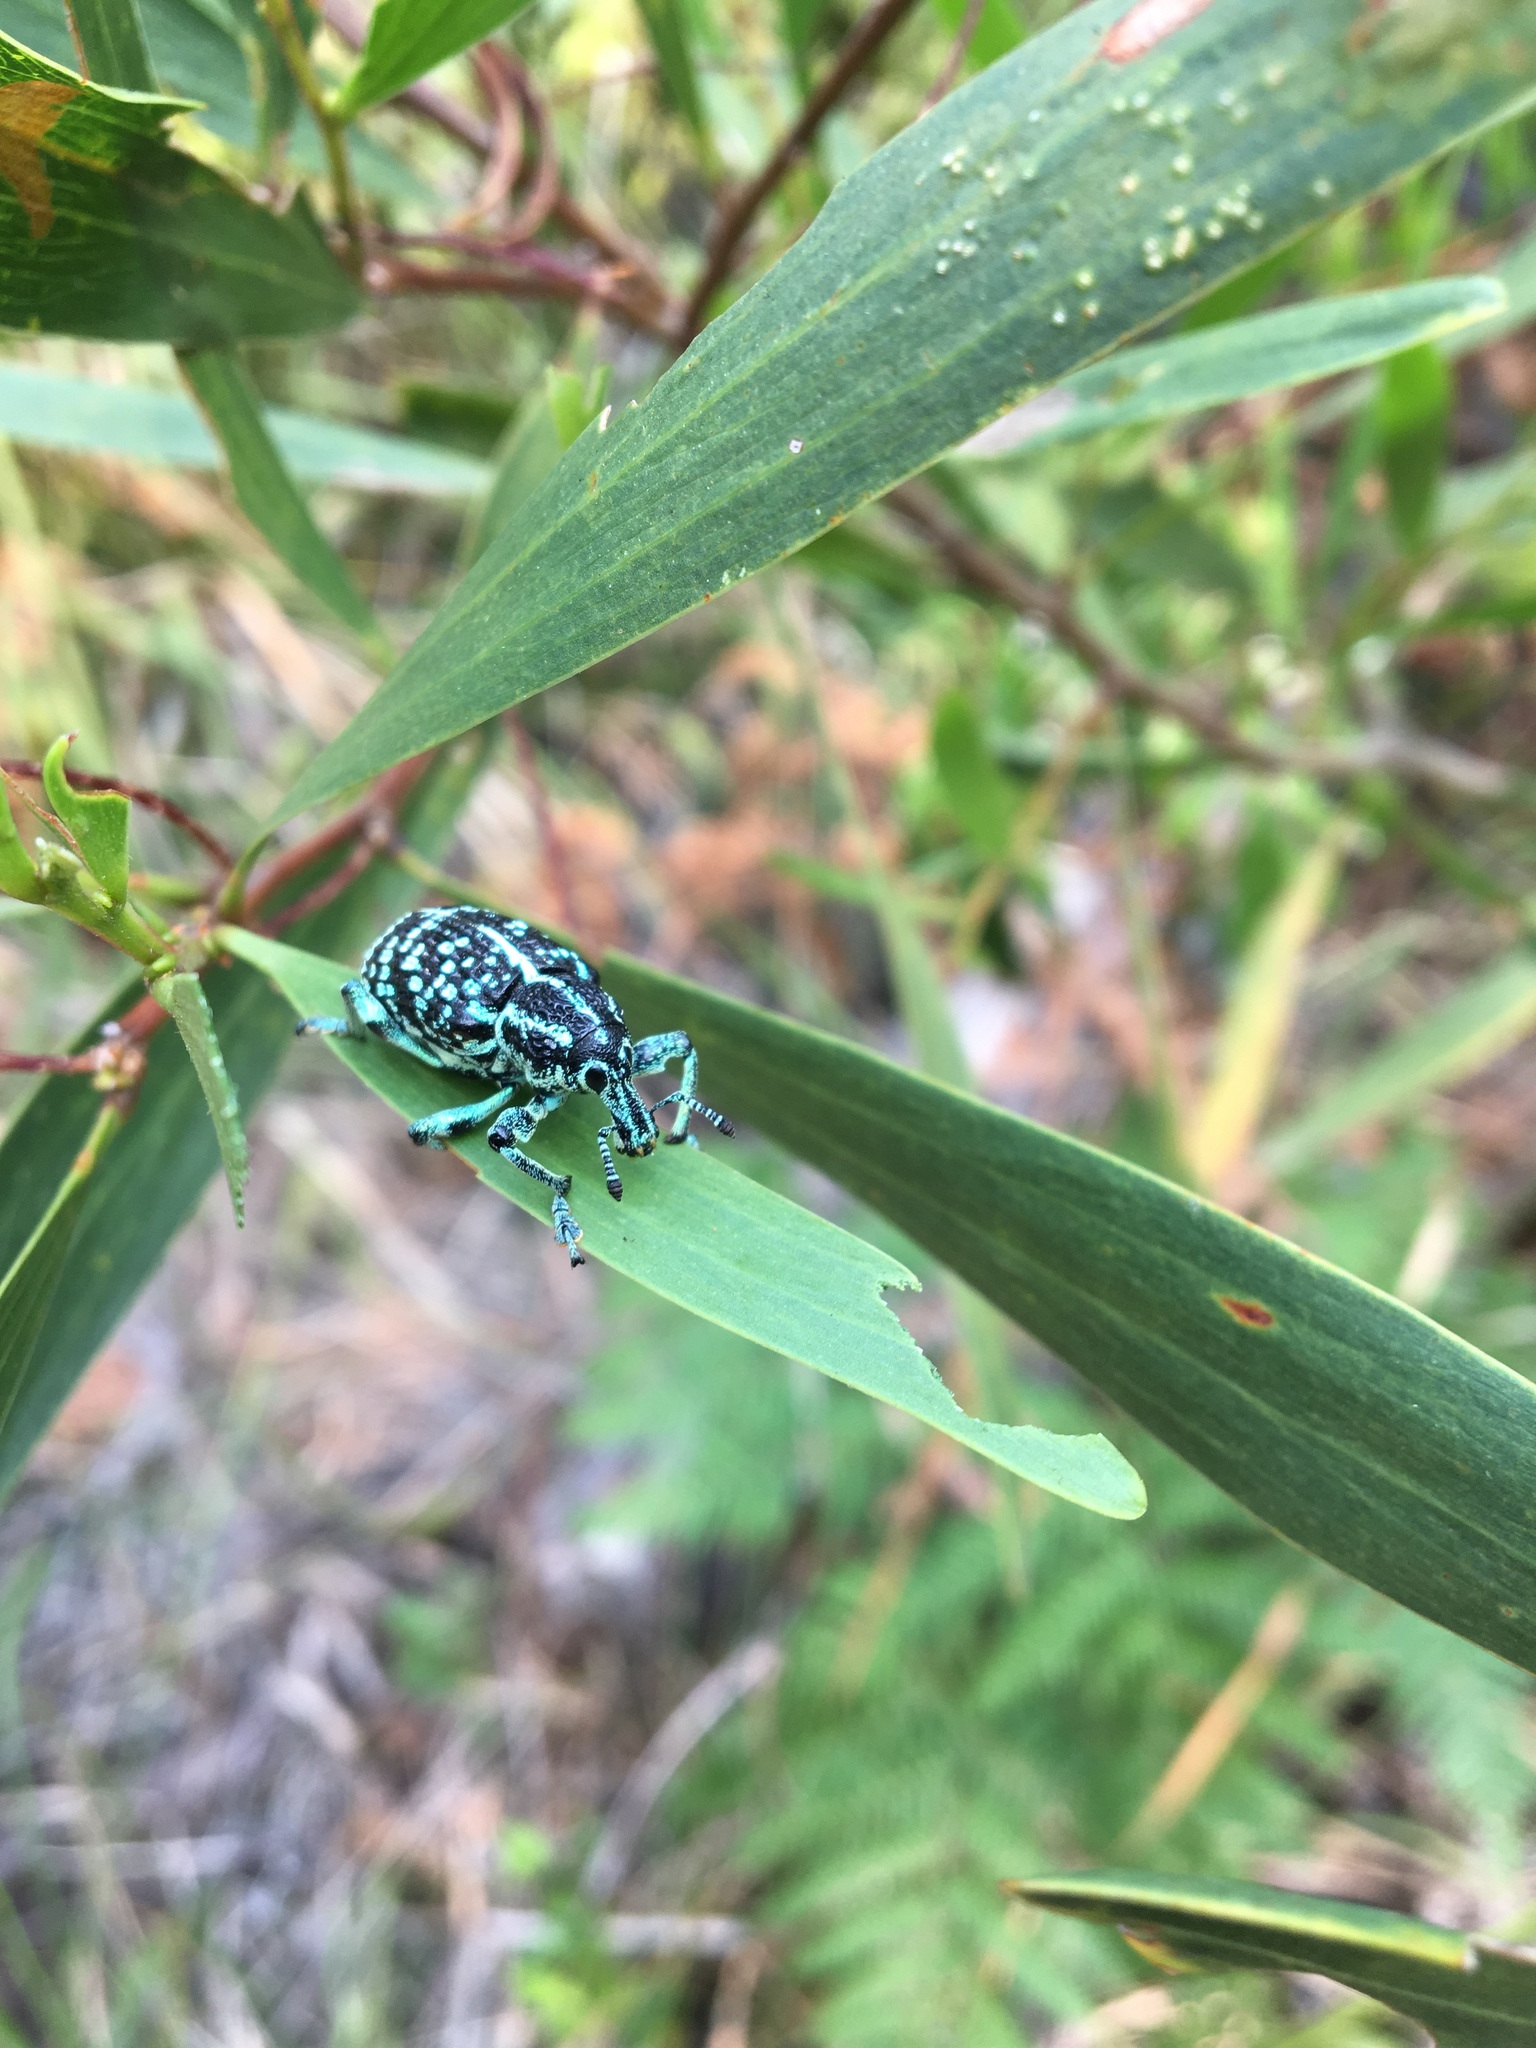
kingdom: Animalia
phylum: Arthropoda
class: Insecta
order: Coleoptera
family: Curculionidae
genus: Chrysolopus
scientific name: Chrysolopus spectabilis
